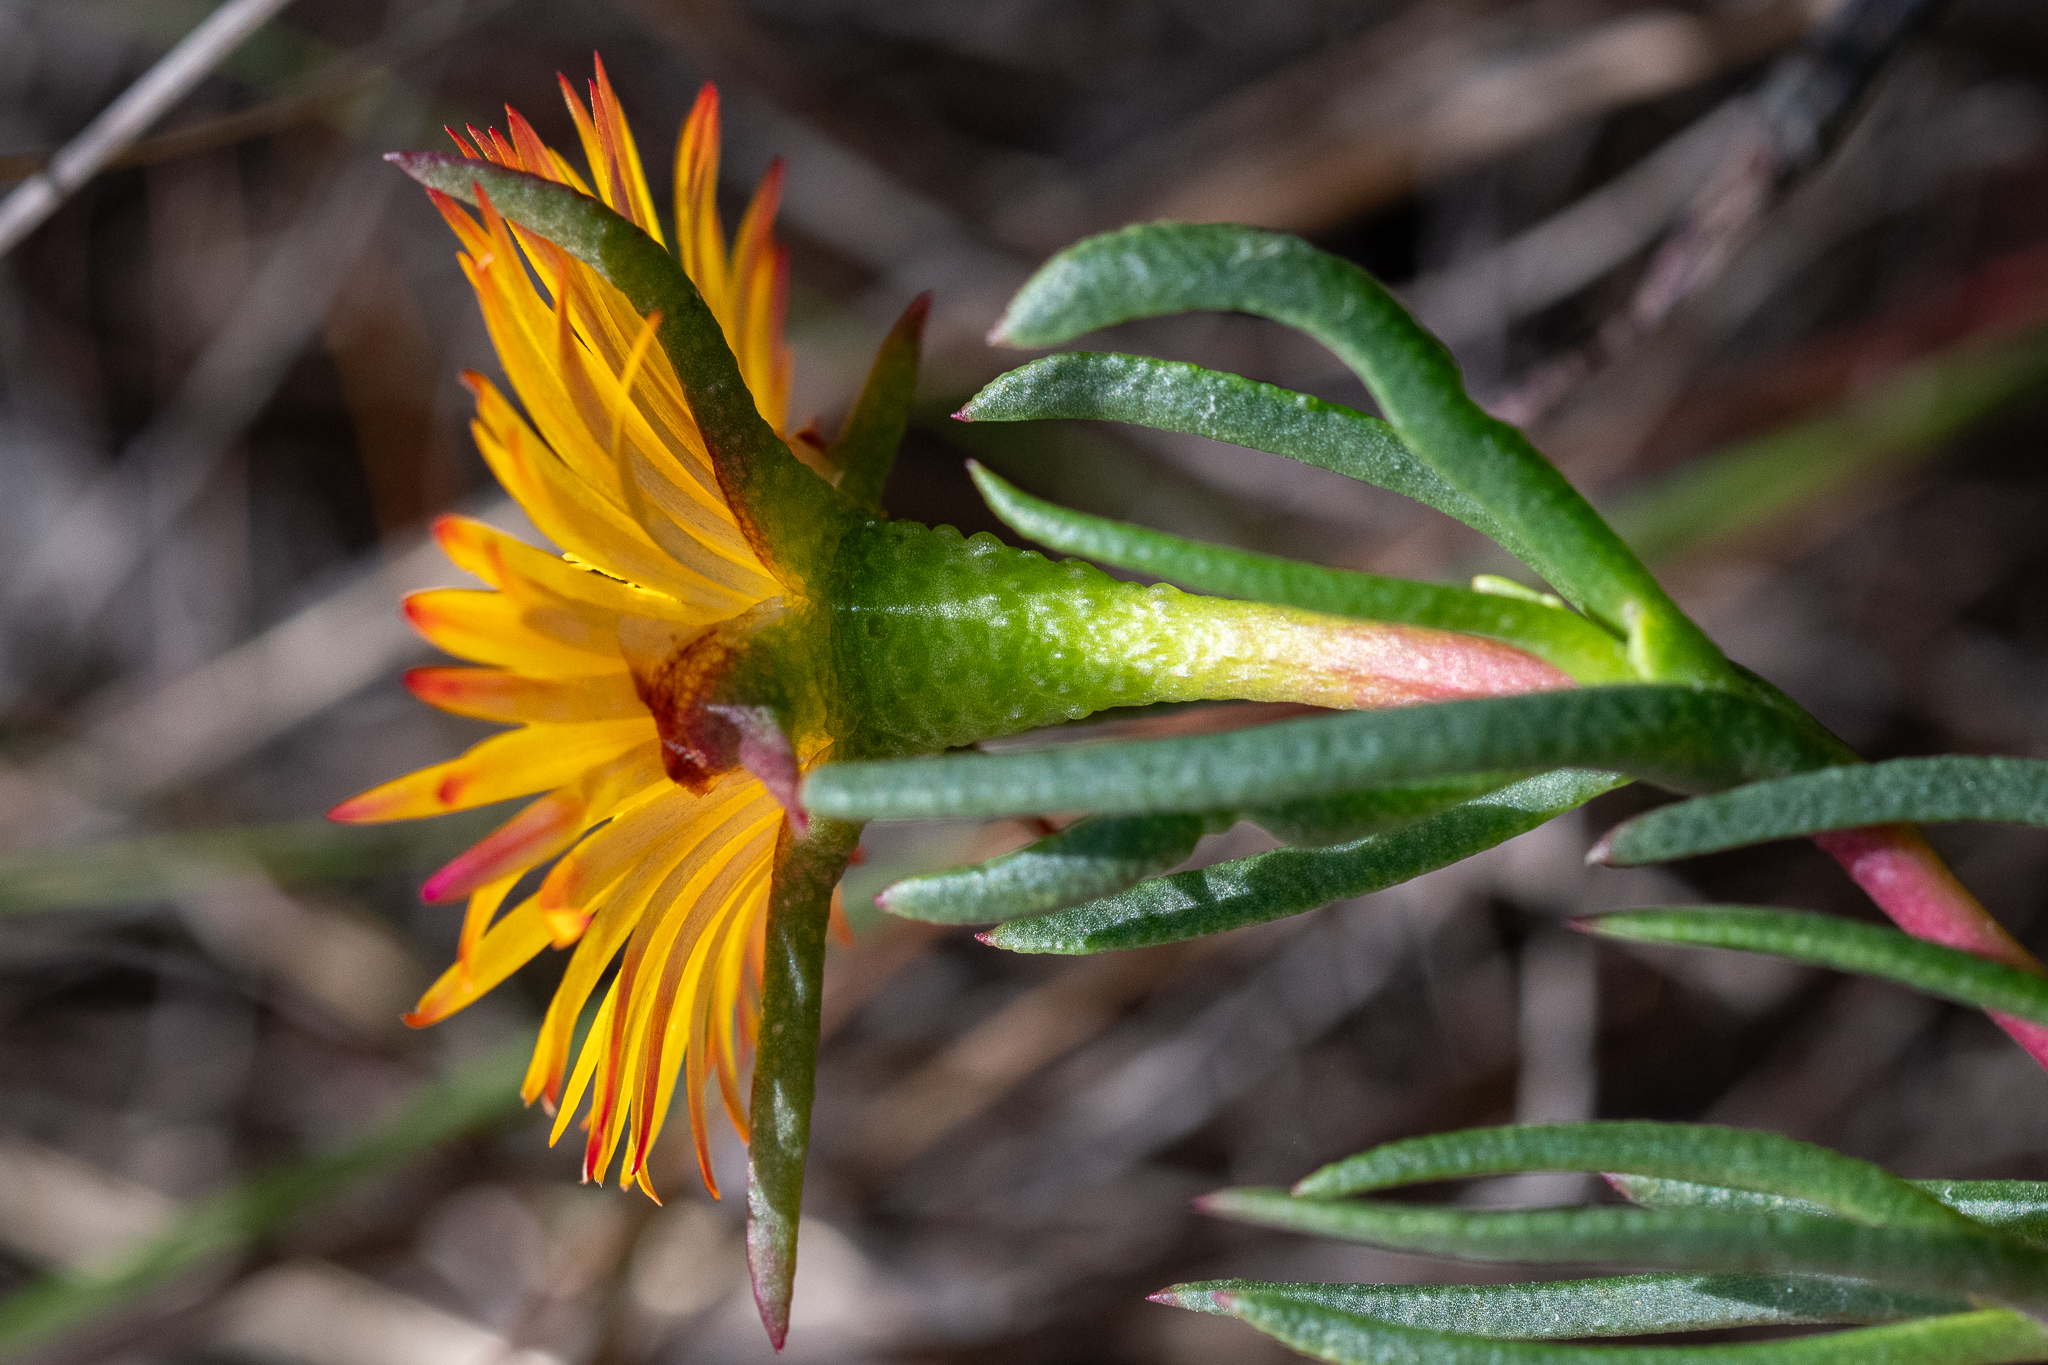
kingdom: Plantae
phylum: Tracheophyta
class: Magnoliopsida
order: Caryophyllales
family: Aizoaceae
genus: Lampranthus
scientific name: Lampranthus bicolor
